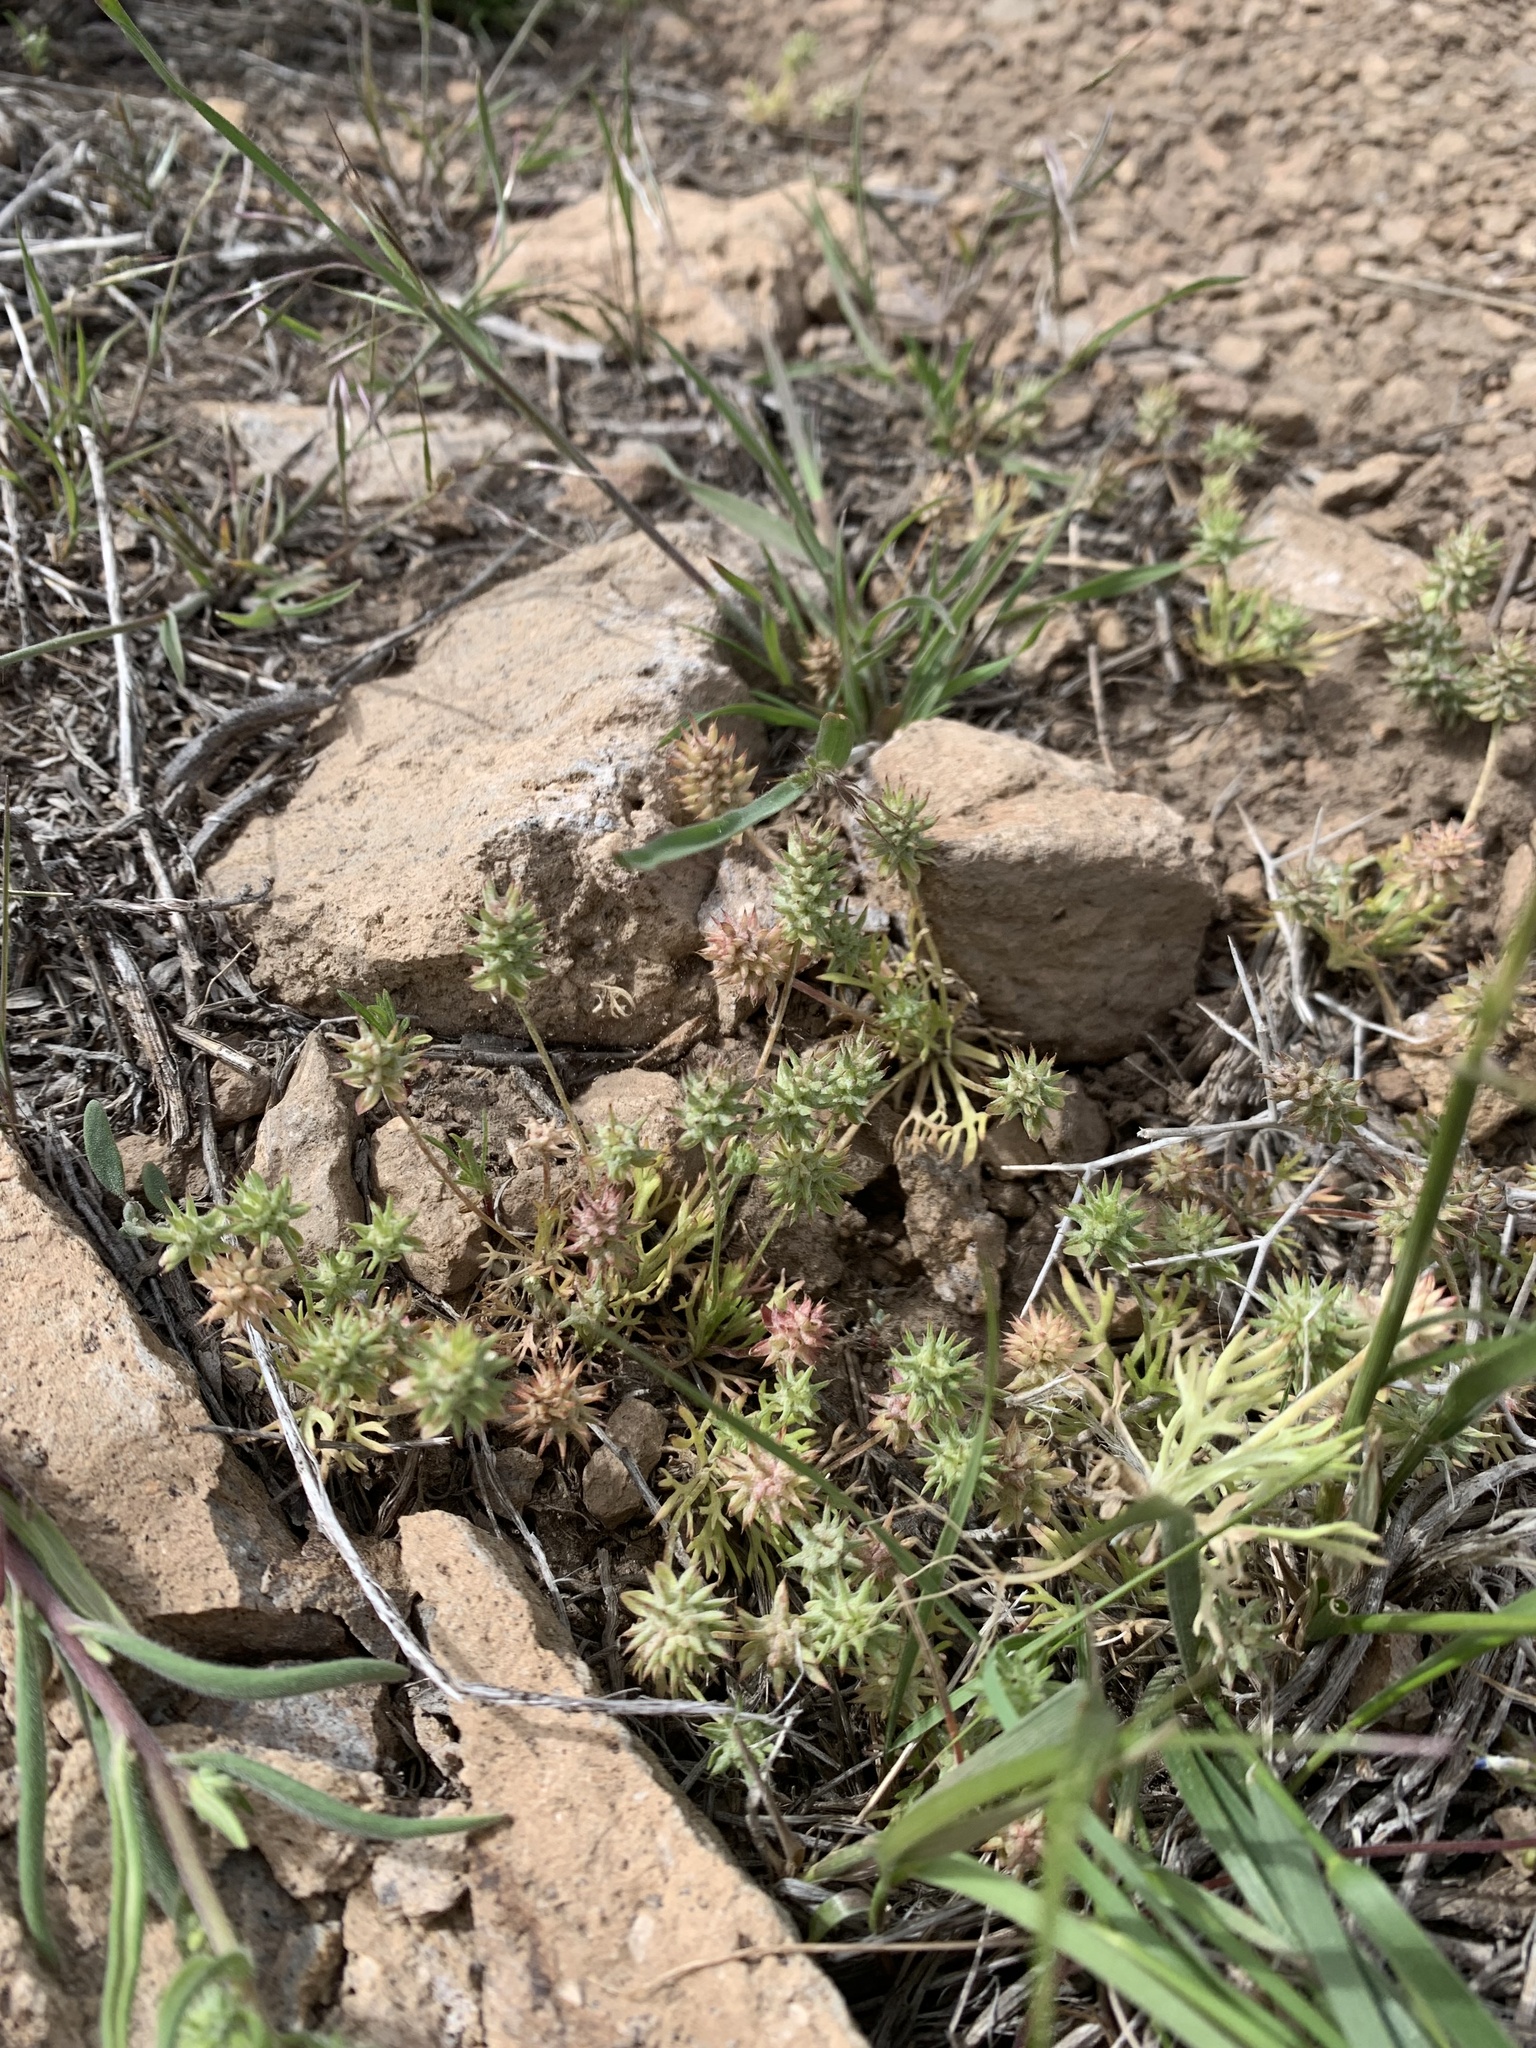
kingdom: Plantae
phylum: Tracheophyta
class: Magnoliopsida
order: Ranunculales
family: Ranunculaceae
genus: Ceratocephala
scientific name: Ceratocephala orthoceras
